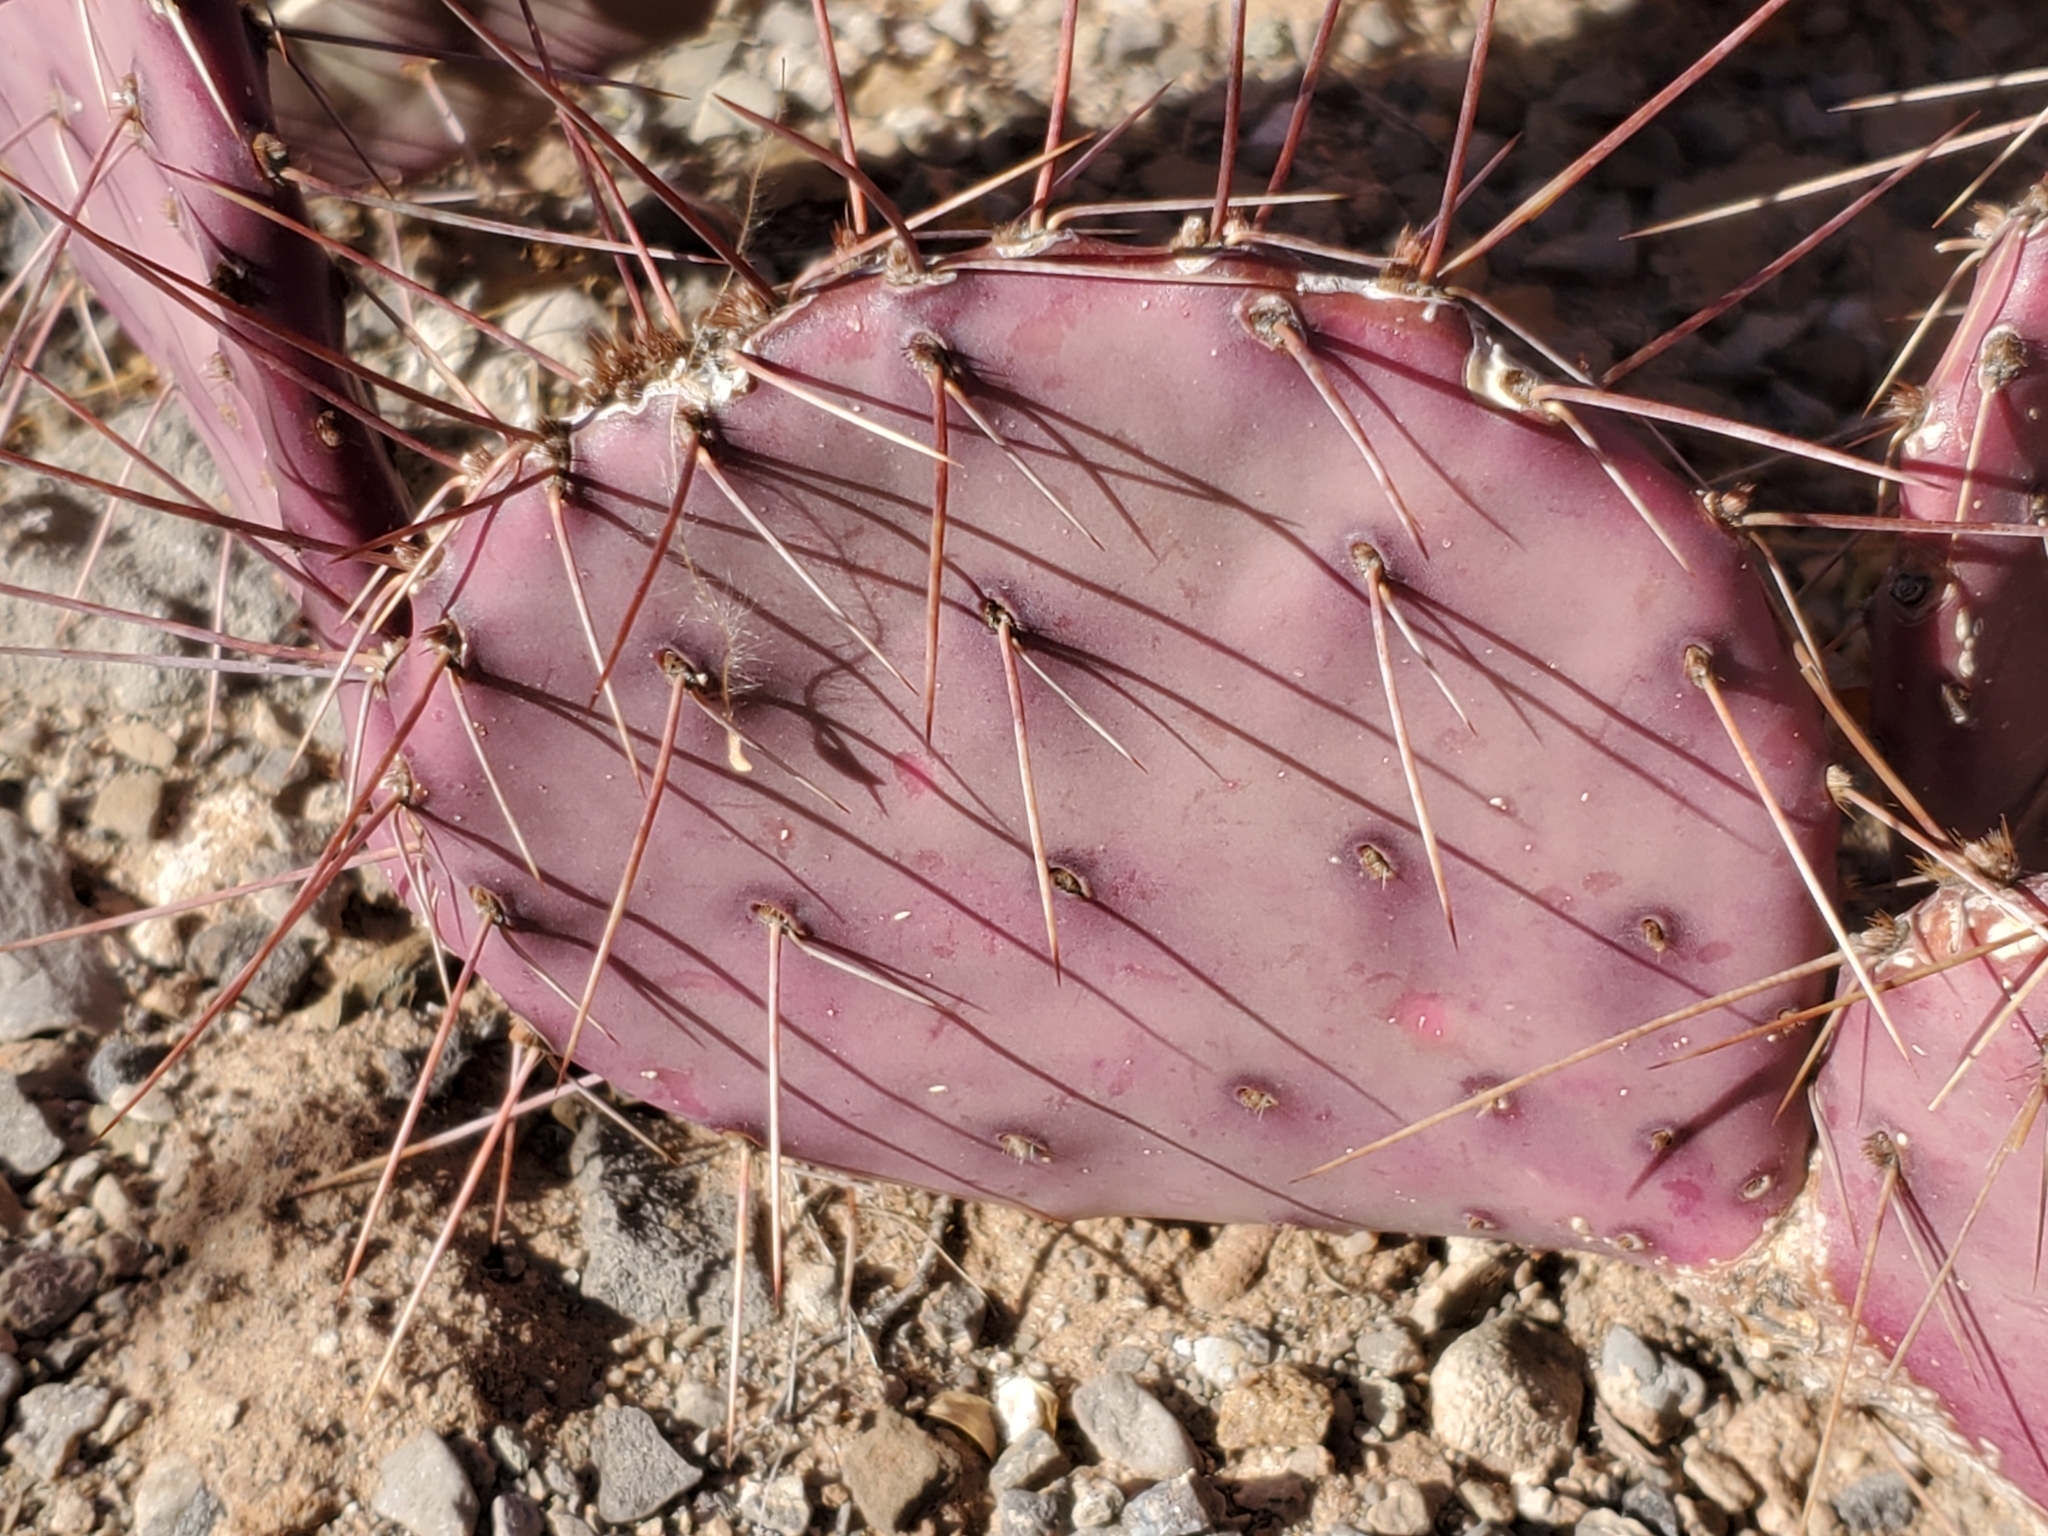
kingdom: Plantae
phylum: Tracheophyta
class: Magnoliopsida
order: Caryophyllales
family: Cactaceae
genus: Opuntia
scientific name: Opuntia macrocentra
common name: Purple prickly-pear
